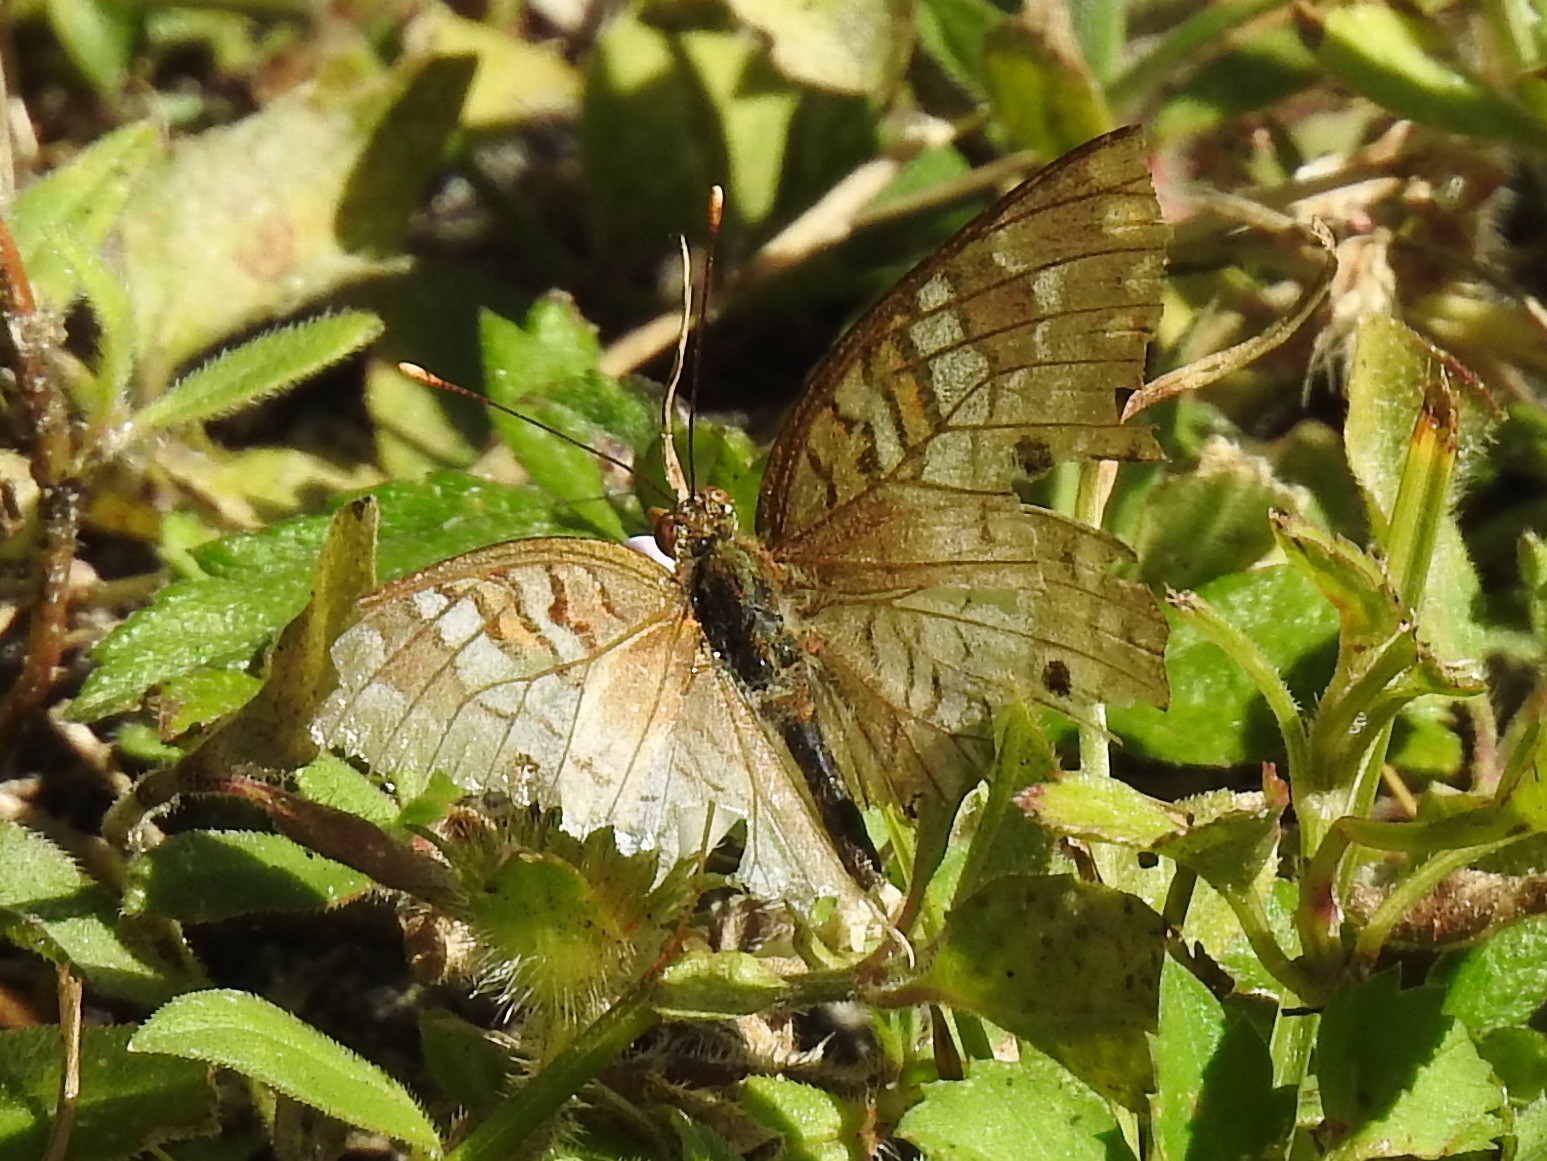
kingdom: Animalia
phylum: Arthropoda
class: Insecta
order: Lepidoptera
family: Nymphalidae
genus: Anartia
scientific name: Anartia jatrophae
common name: White peacock
